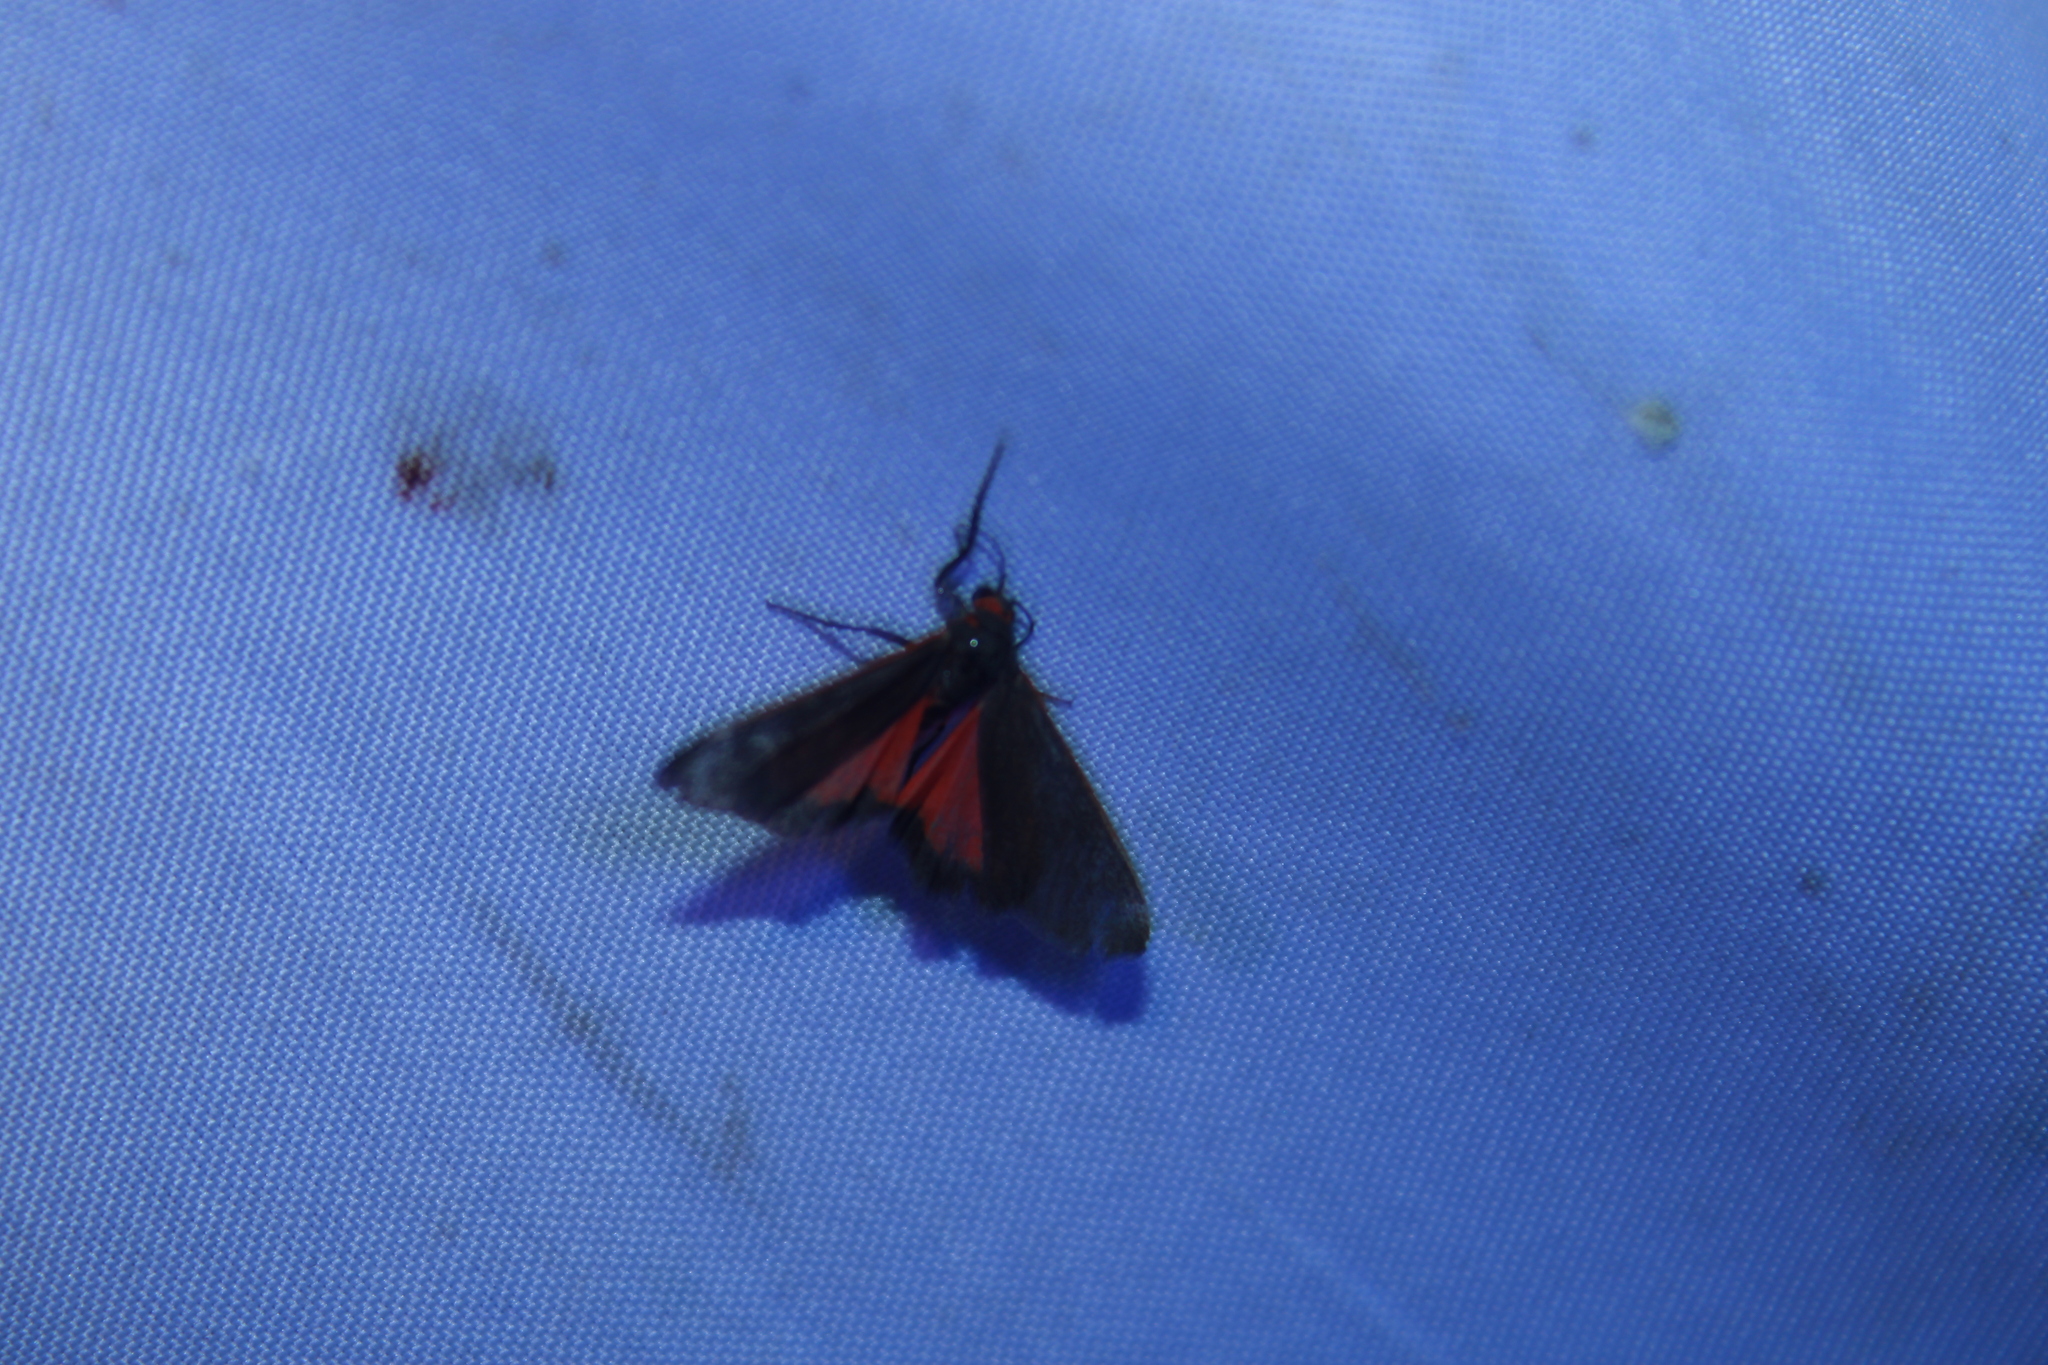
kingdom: Animalia
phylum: Arthropoda
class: Insecta
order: Lepidoptera
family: Erebidae
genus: Virbia
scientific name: Virbia laeta
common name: Joyful holomelina moth
